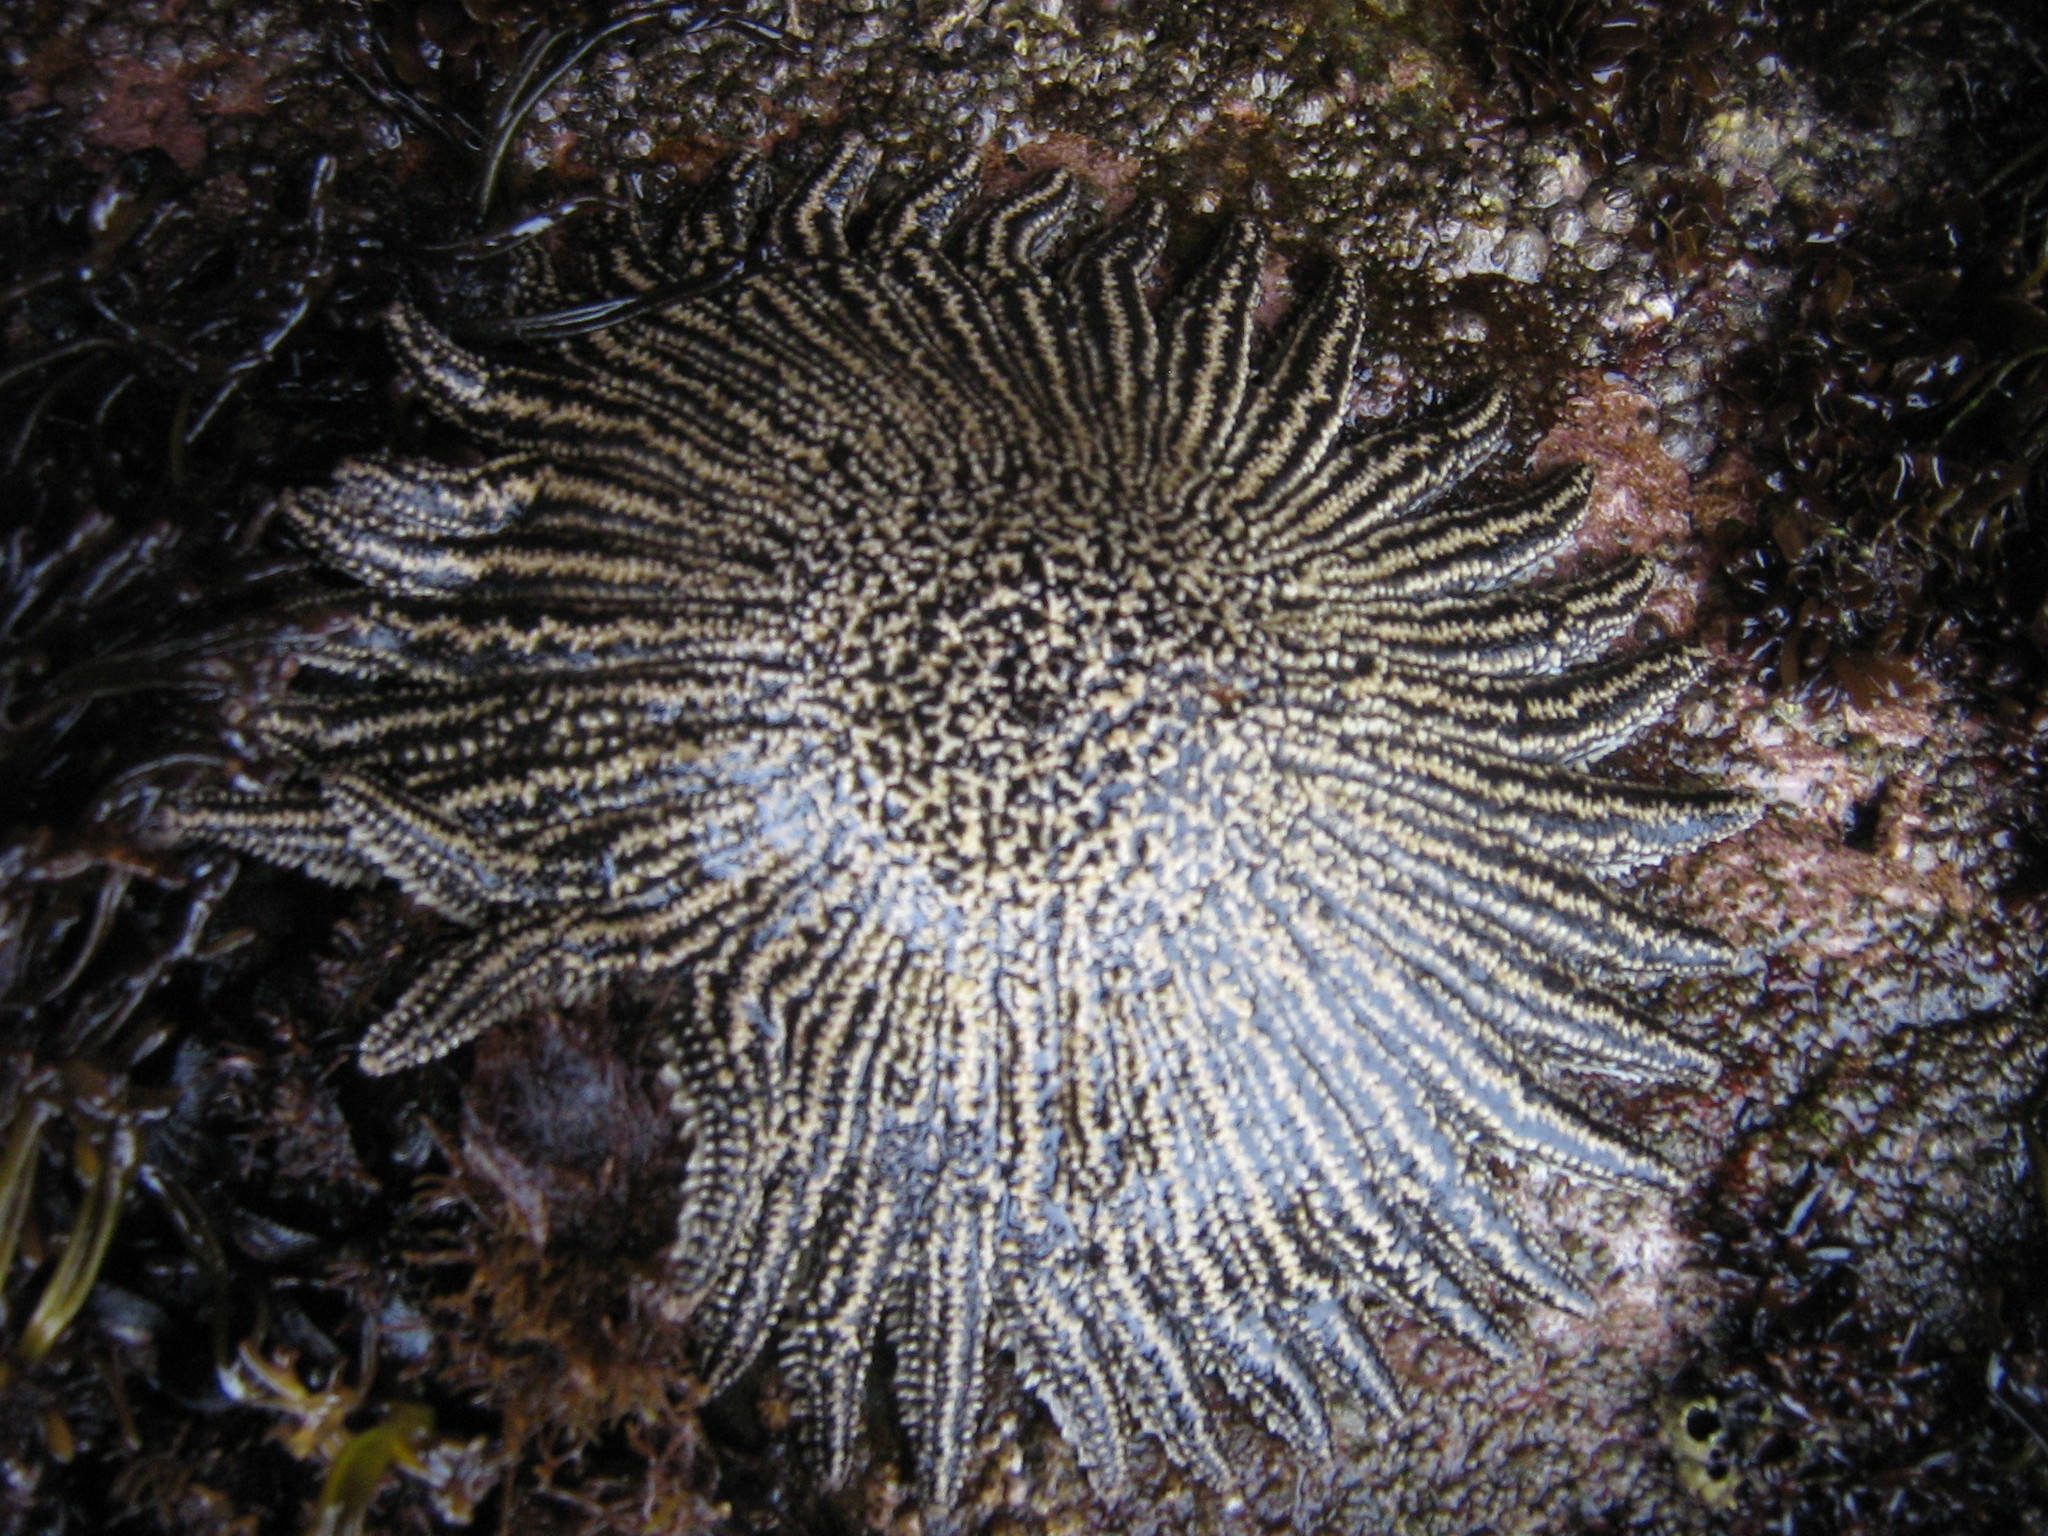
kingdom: Animalia
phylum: Echinodermata
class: Asteroidea
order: Forcipulatida
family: Heliasteridae
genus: Heliaster
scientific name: Heliaster helianthus
